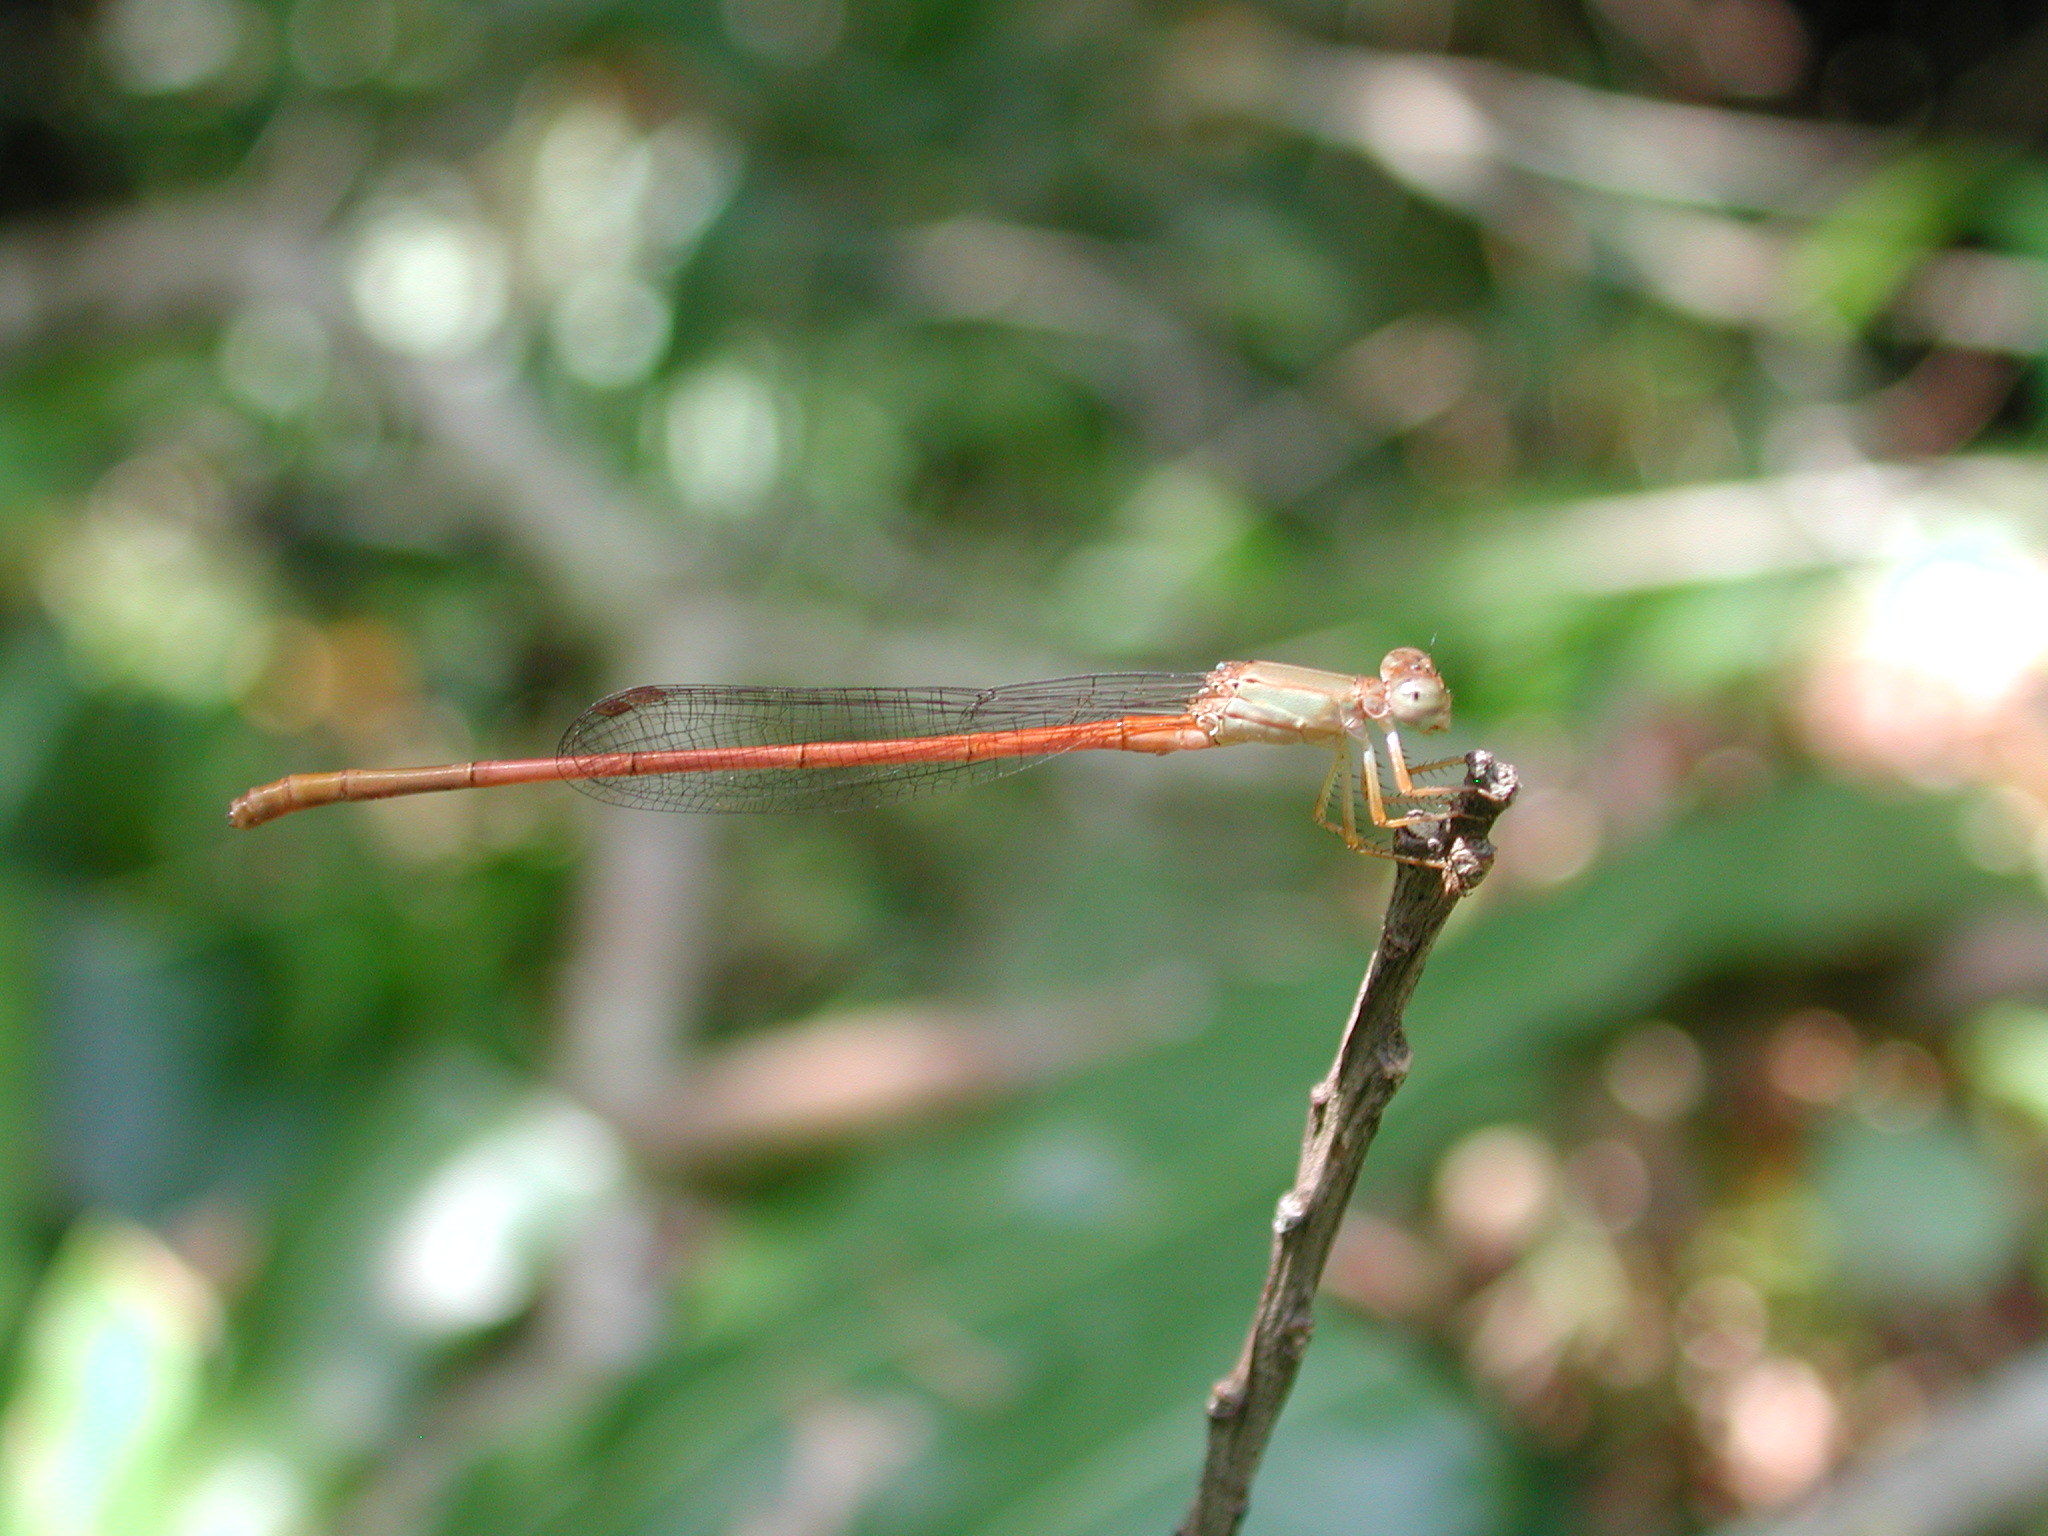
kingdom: Animalia
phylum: Arthropoda
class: Insecta
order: Odonata
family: Coenagrionidae
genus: Ceriagrion
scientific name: Ceriagrion glabrum
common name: Common pond damsel
